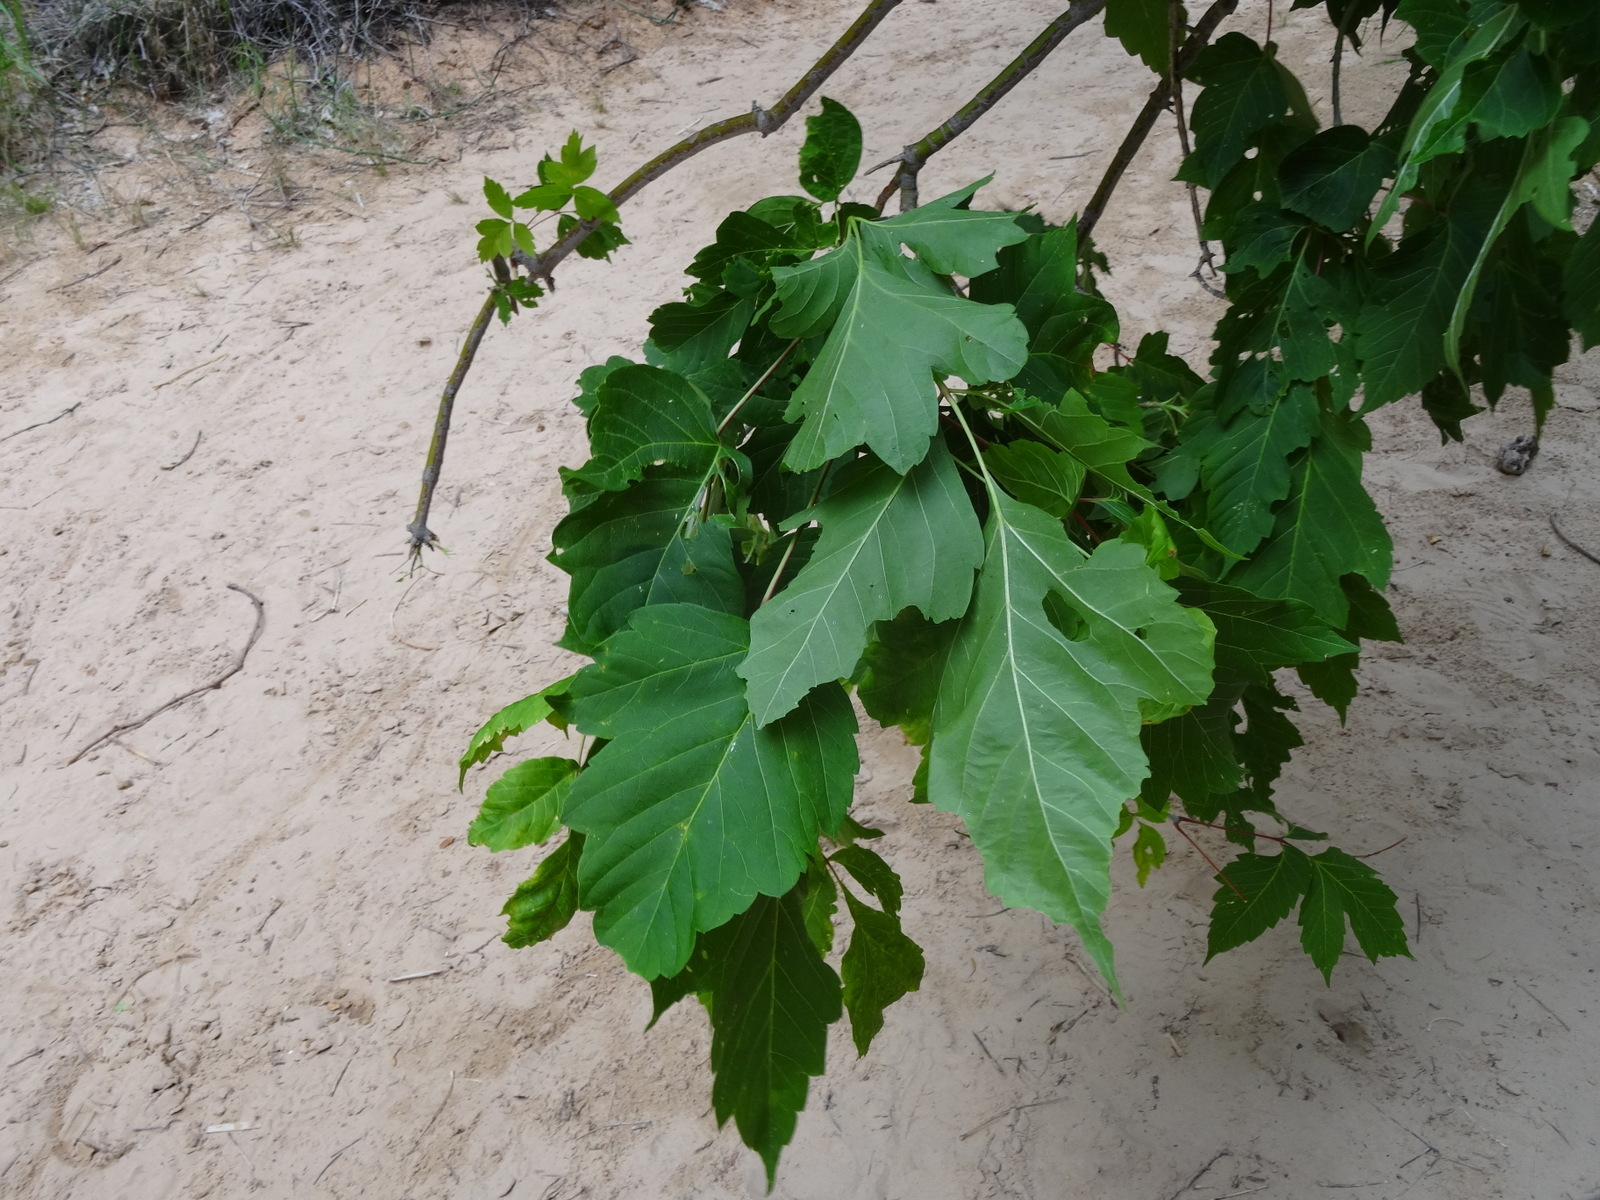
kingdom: Plantae
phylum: Tracheophyta
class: Magnoliopsida
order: Sapindales
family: Sapindaceae
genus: Acer
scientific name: Acer negundo
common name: Ashleaf maple
